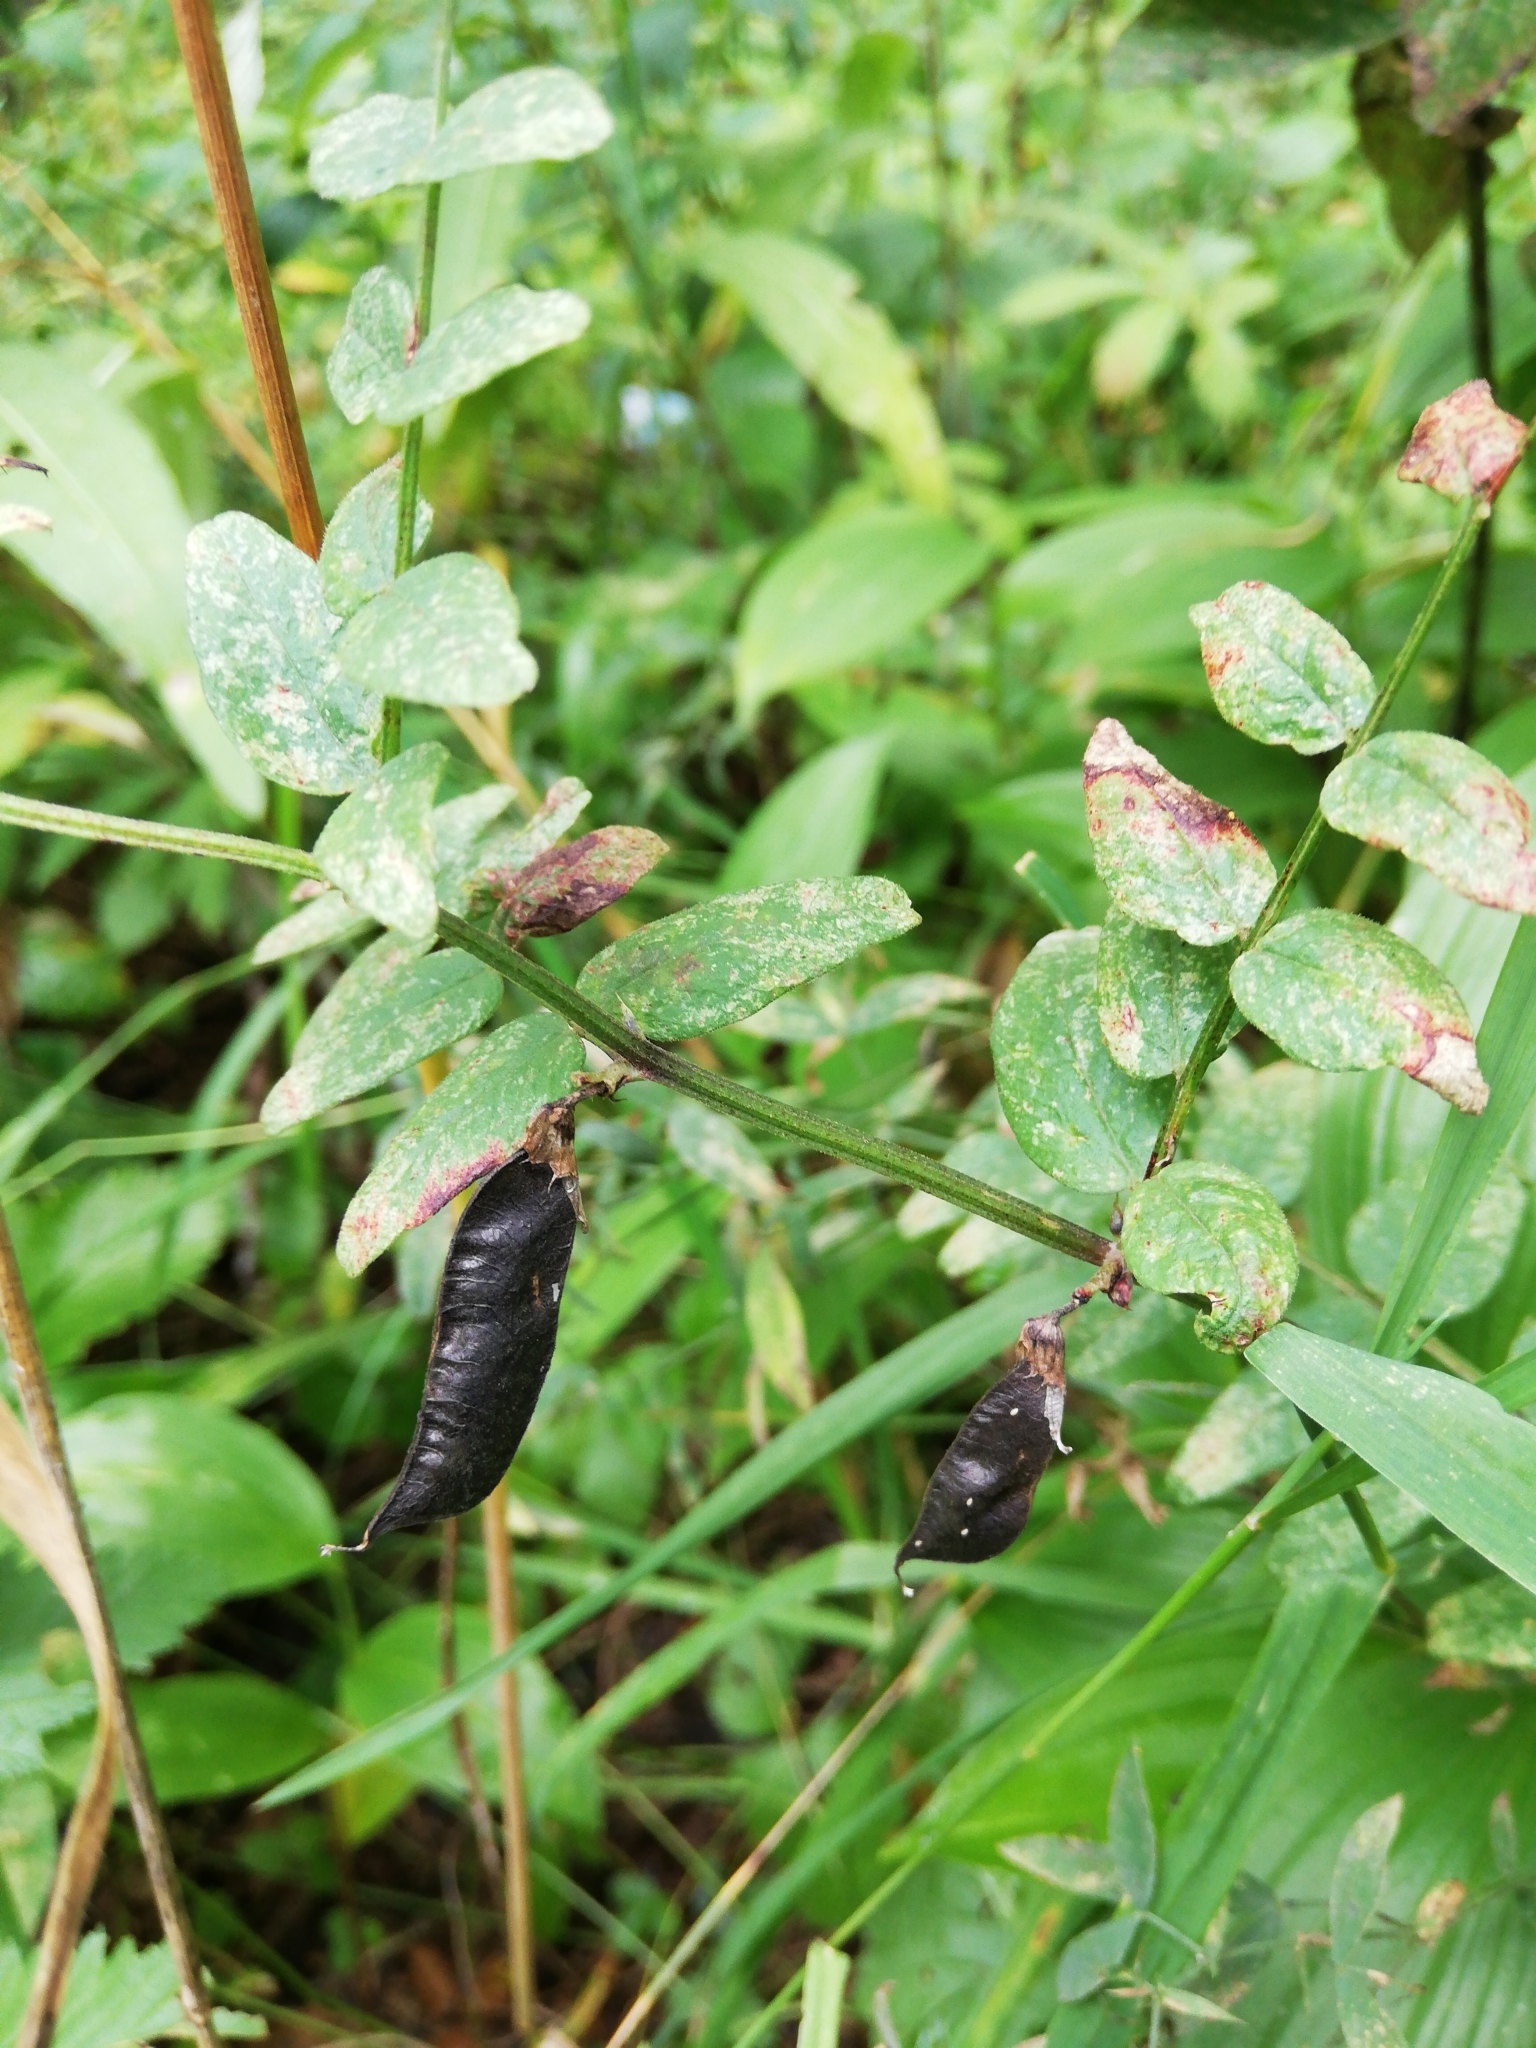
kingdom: Plantae
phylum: Tracheophyta
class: Magnoliopsida
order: Fabales
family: Fabaceae
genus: Vicia
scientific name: Vicia sepium
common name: Bush vetch
